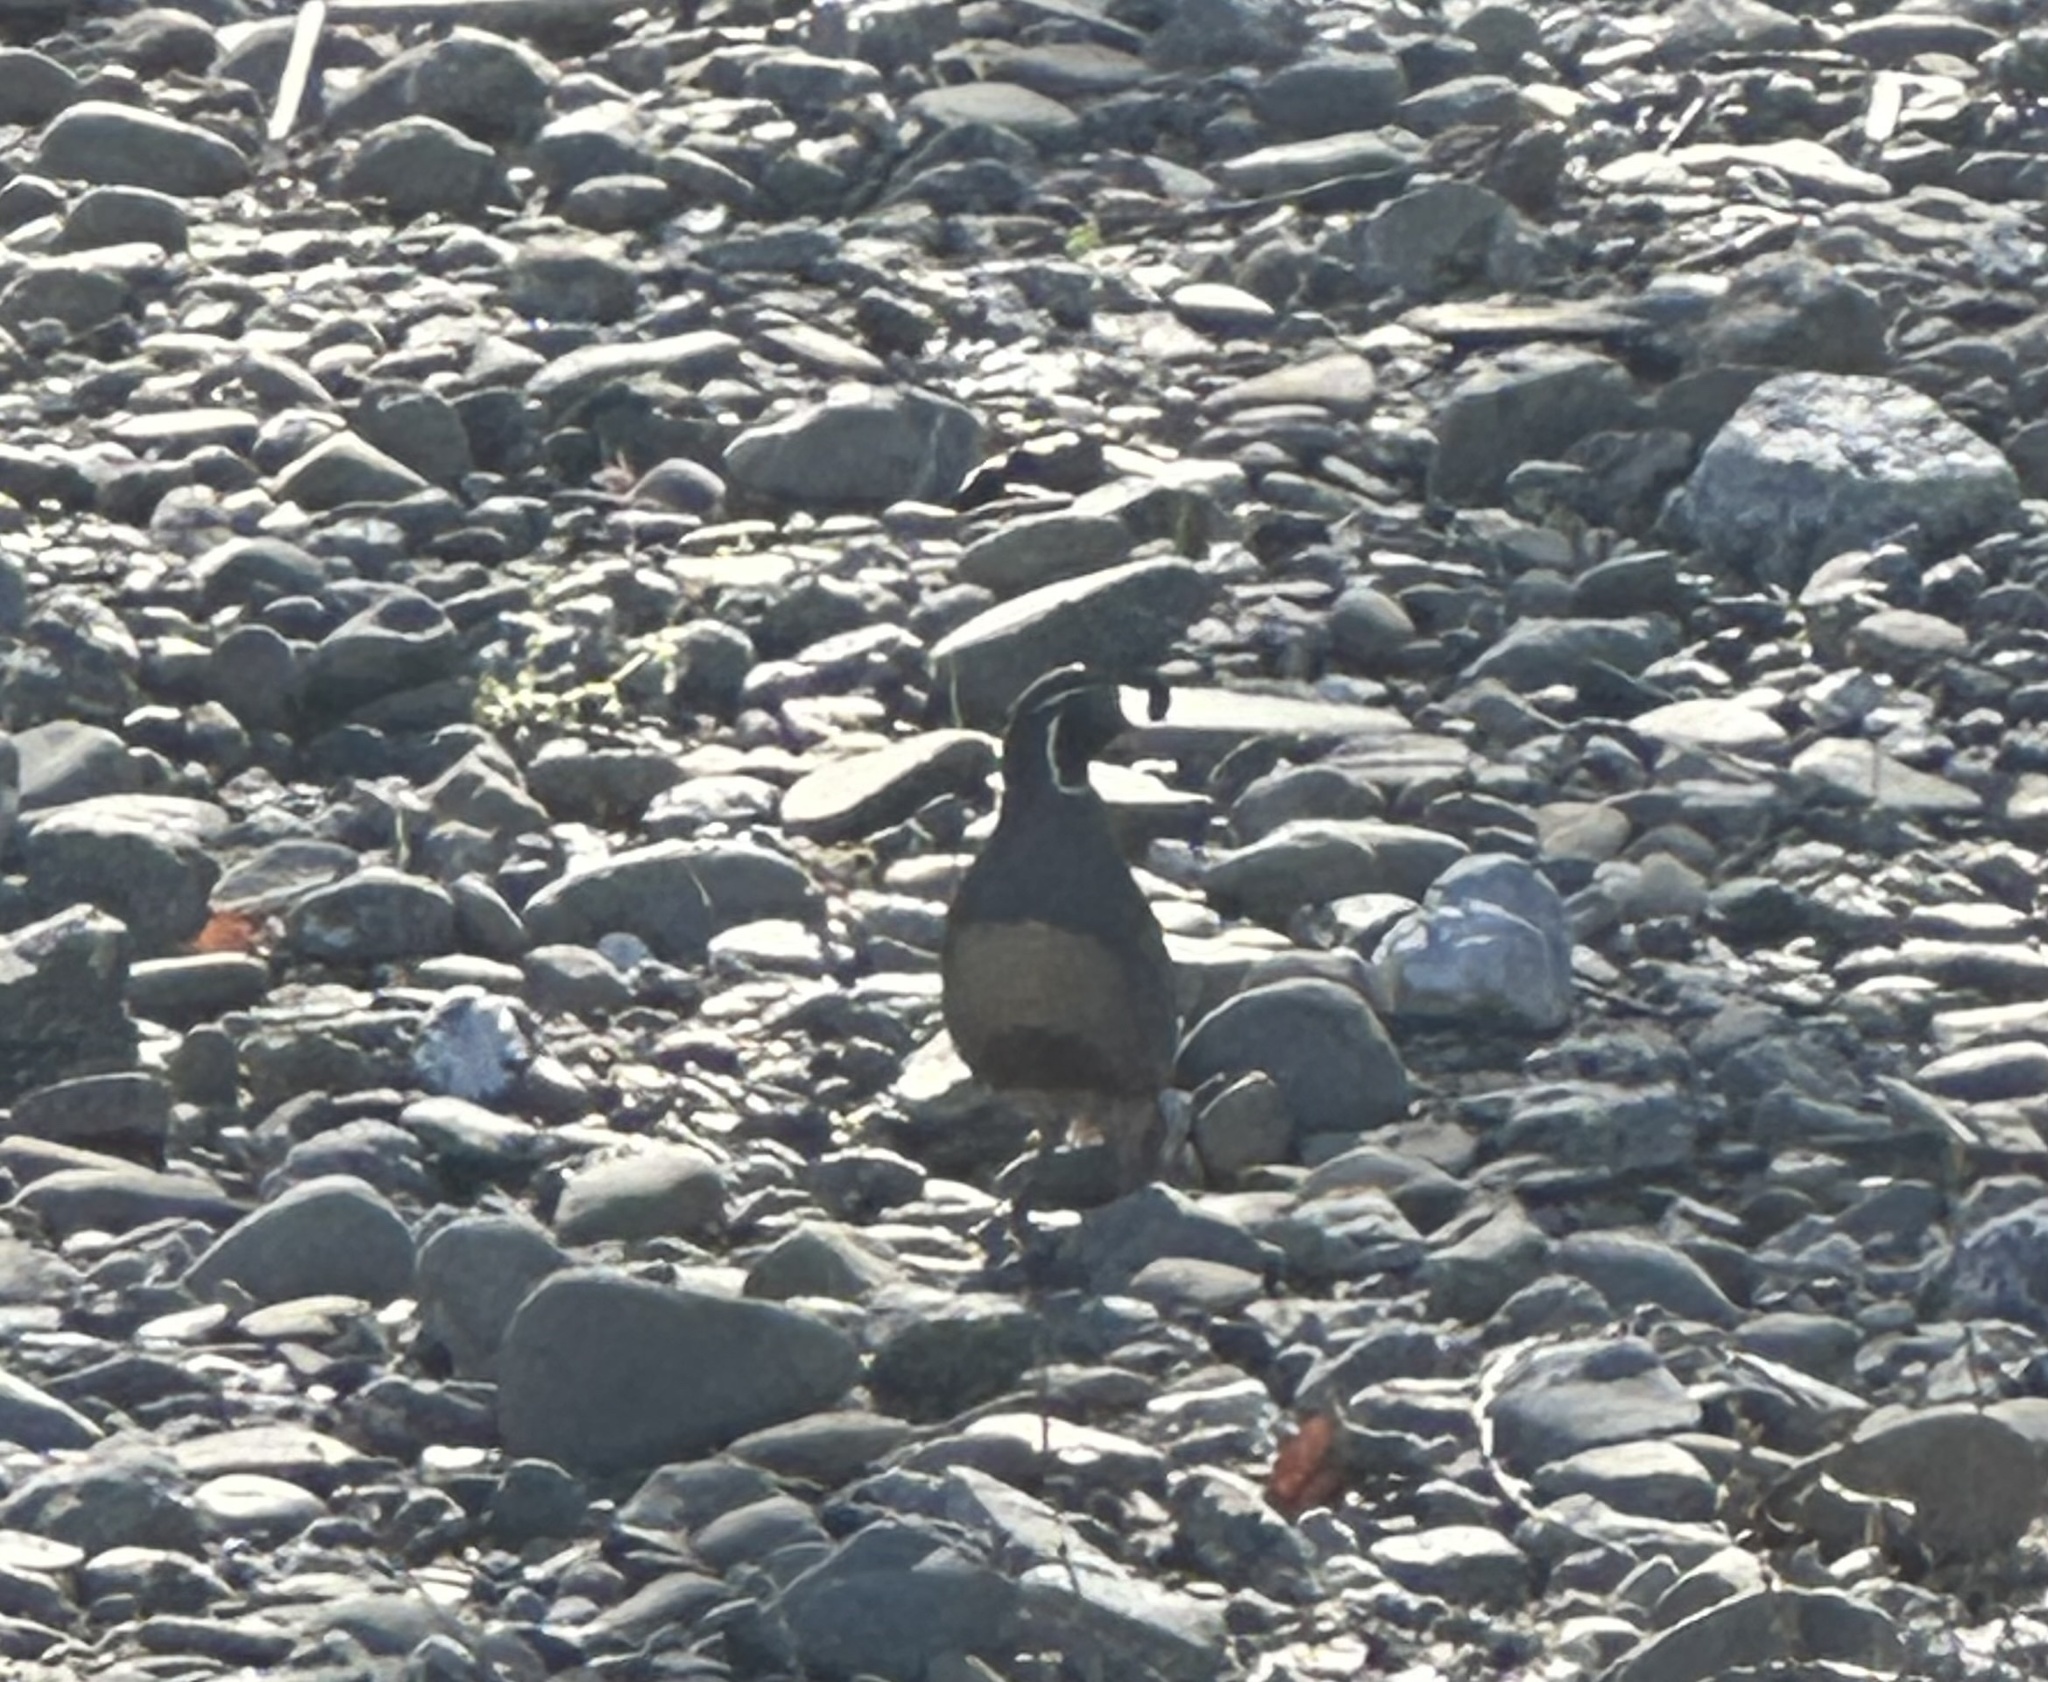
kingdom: Animalia
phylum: Chordata
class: Aves
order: Galliformes
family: Odontophoridae
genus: Callipepla
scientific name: Callipepla californica
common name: California quail
